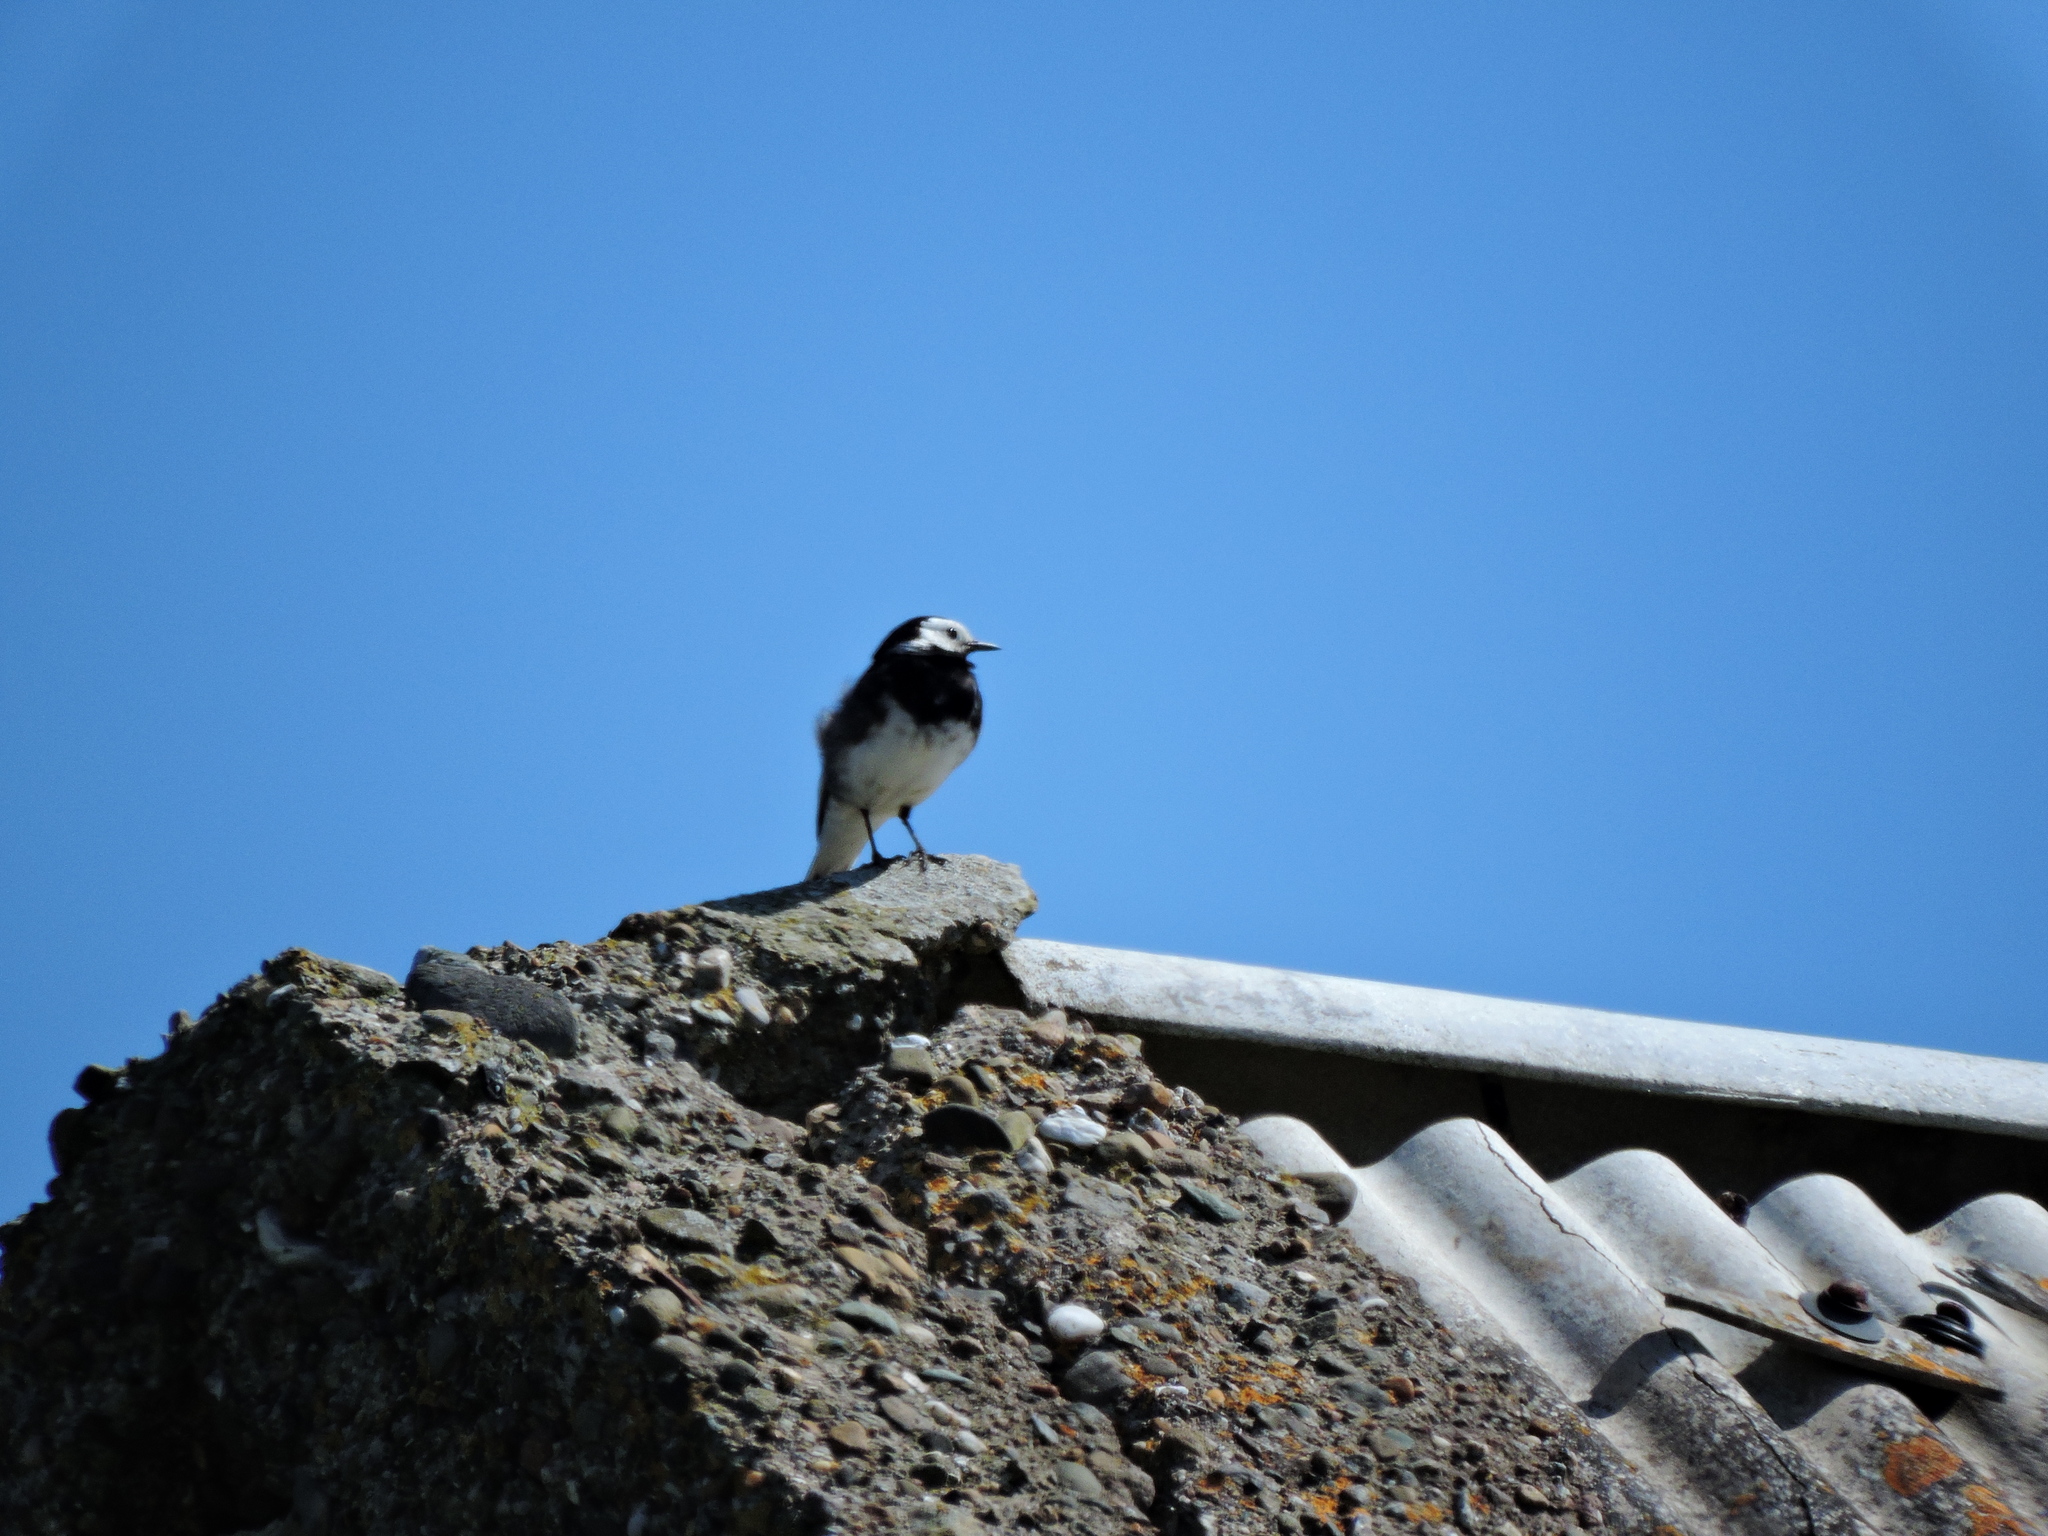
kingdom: Animalia
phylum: Chordata
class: Aves
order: Passeriformes
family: Motacillidae
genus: Motacilla
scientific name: Motacilla alba
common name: White wagtail
